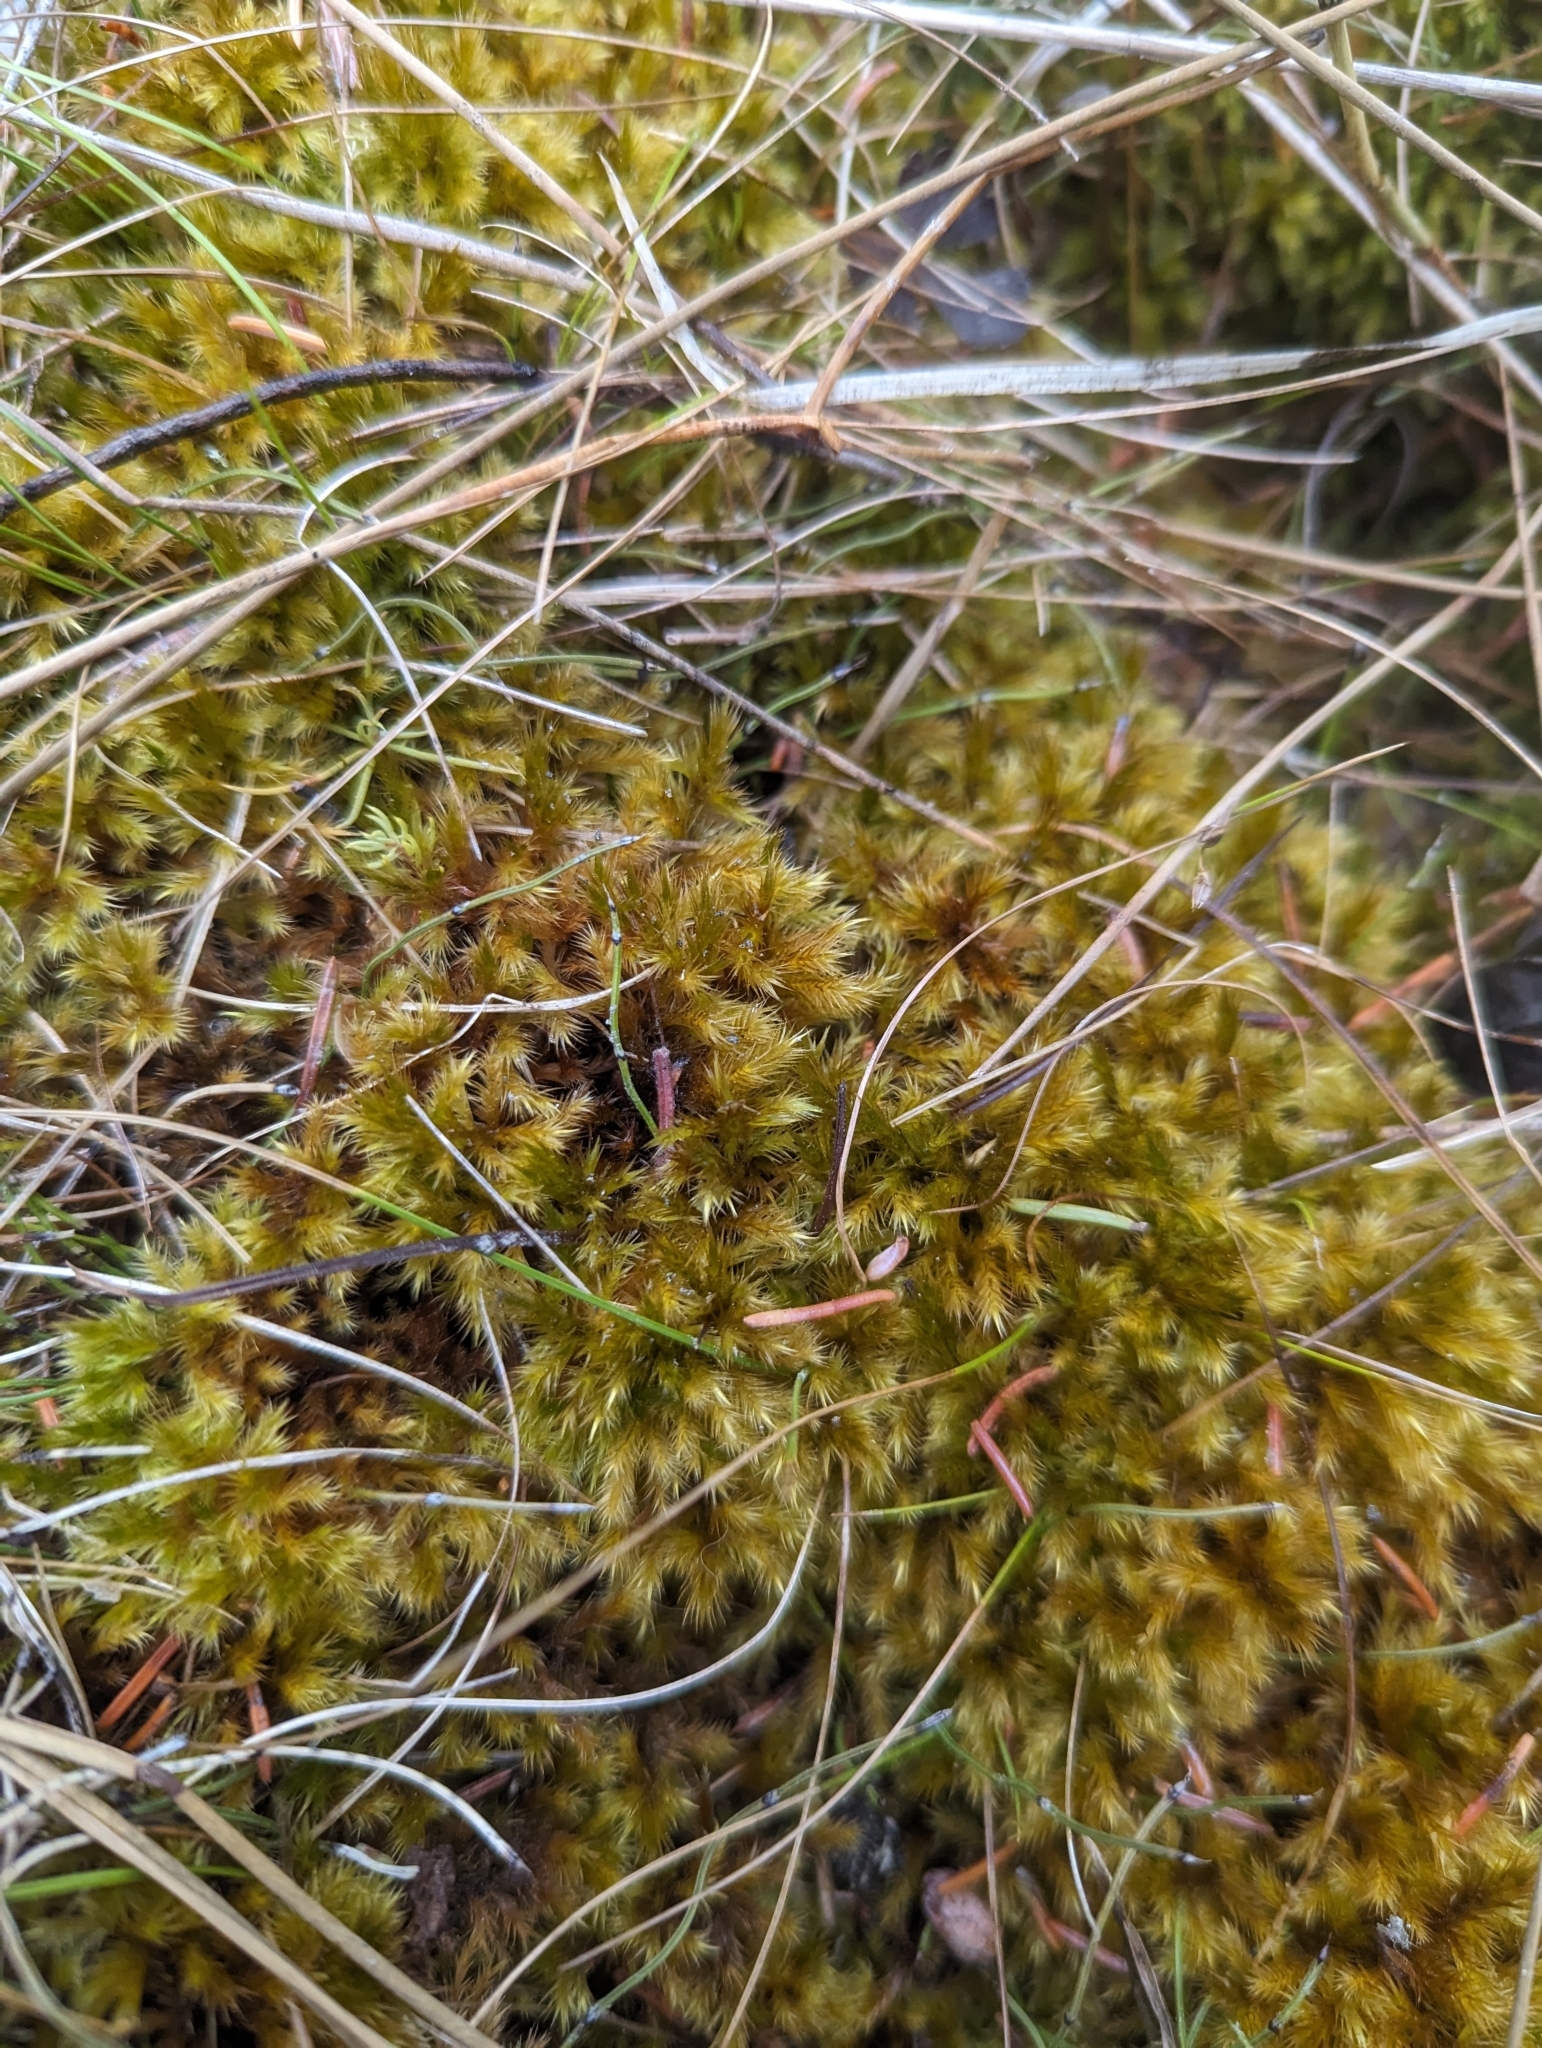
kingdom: Plantae
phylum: Bryophyta
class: Bryopsida
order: Hypnales
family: Amblystegiaceae
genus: Tomentypnum
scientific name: Tomentypnum nitens
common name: Golden fuzzy fen moss
